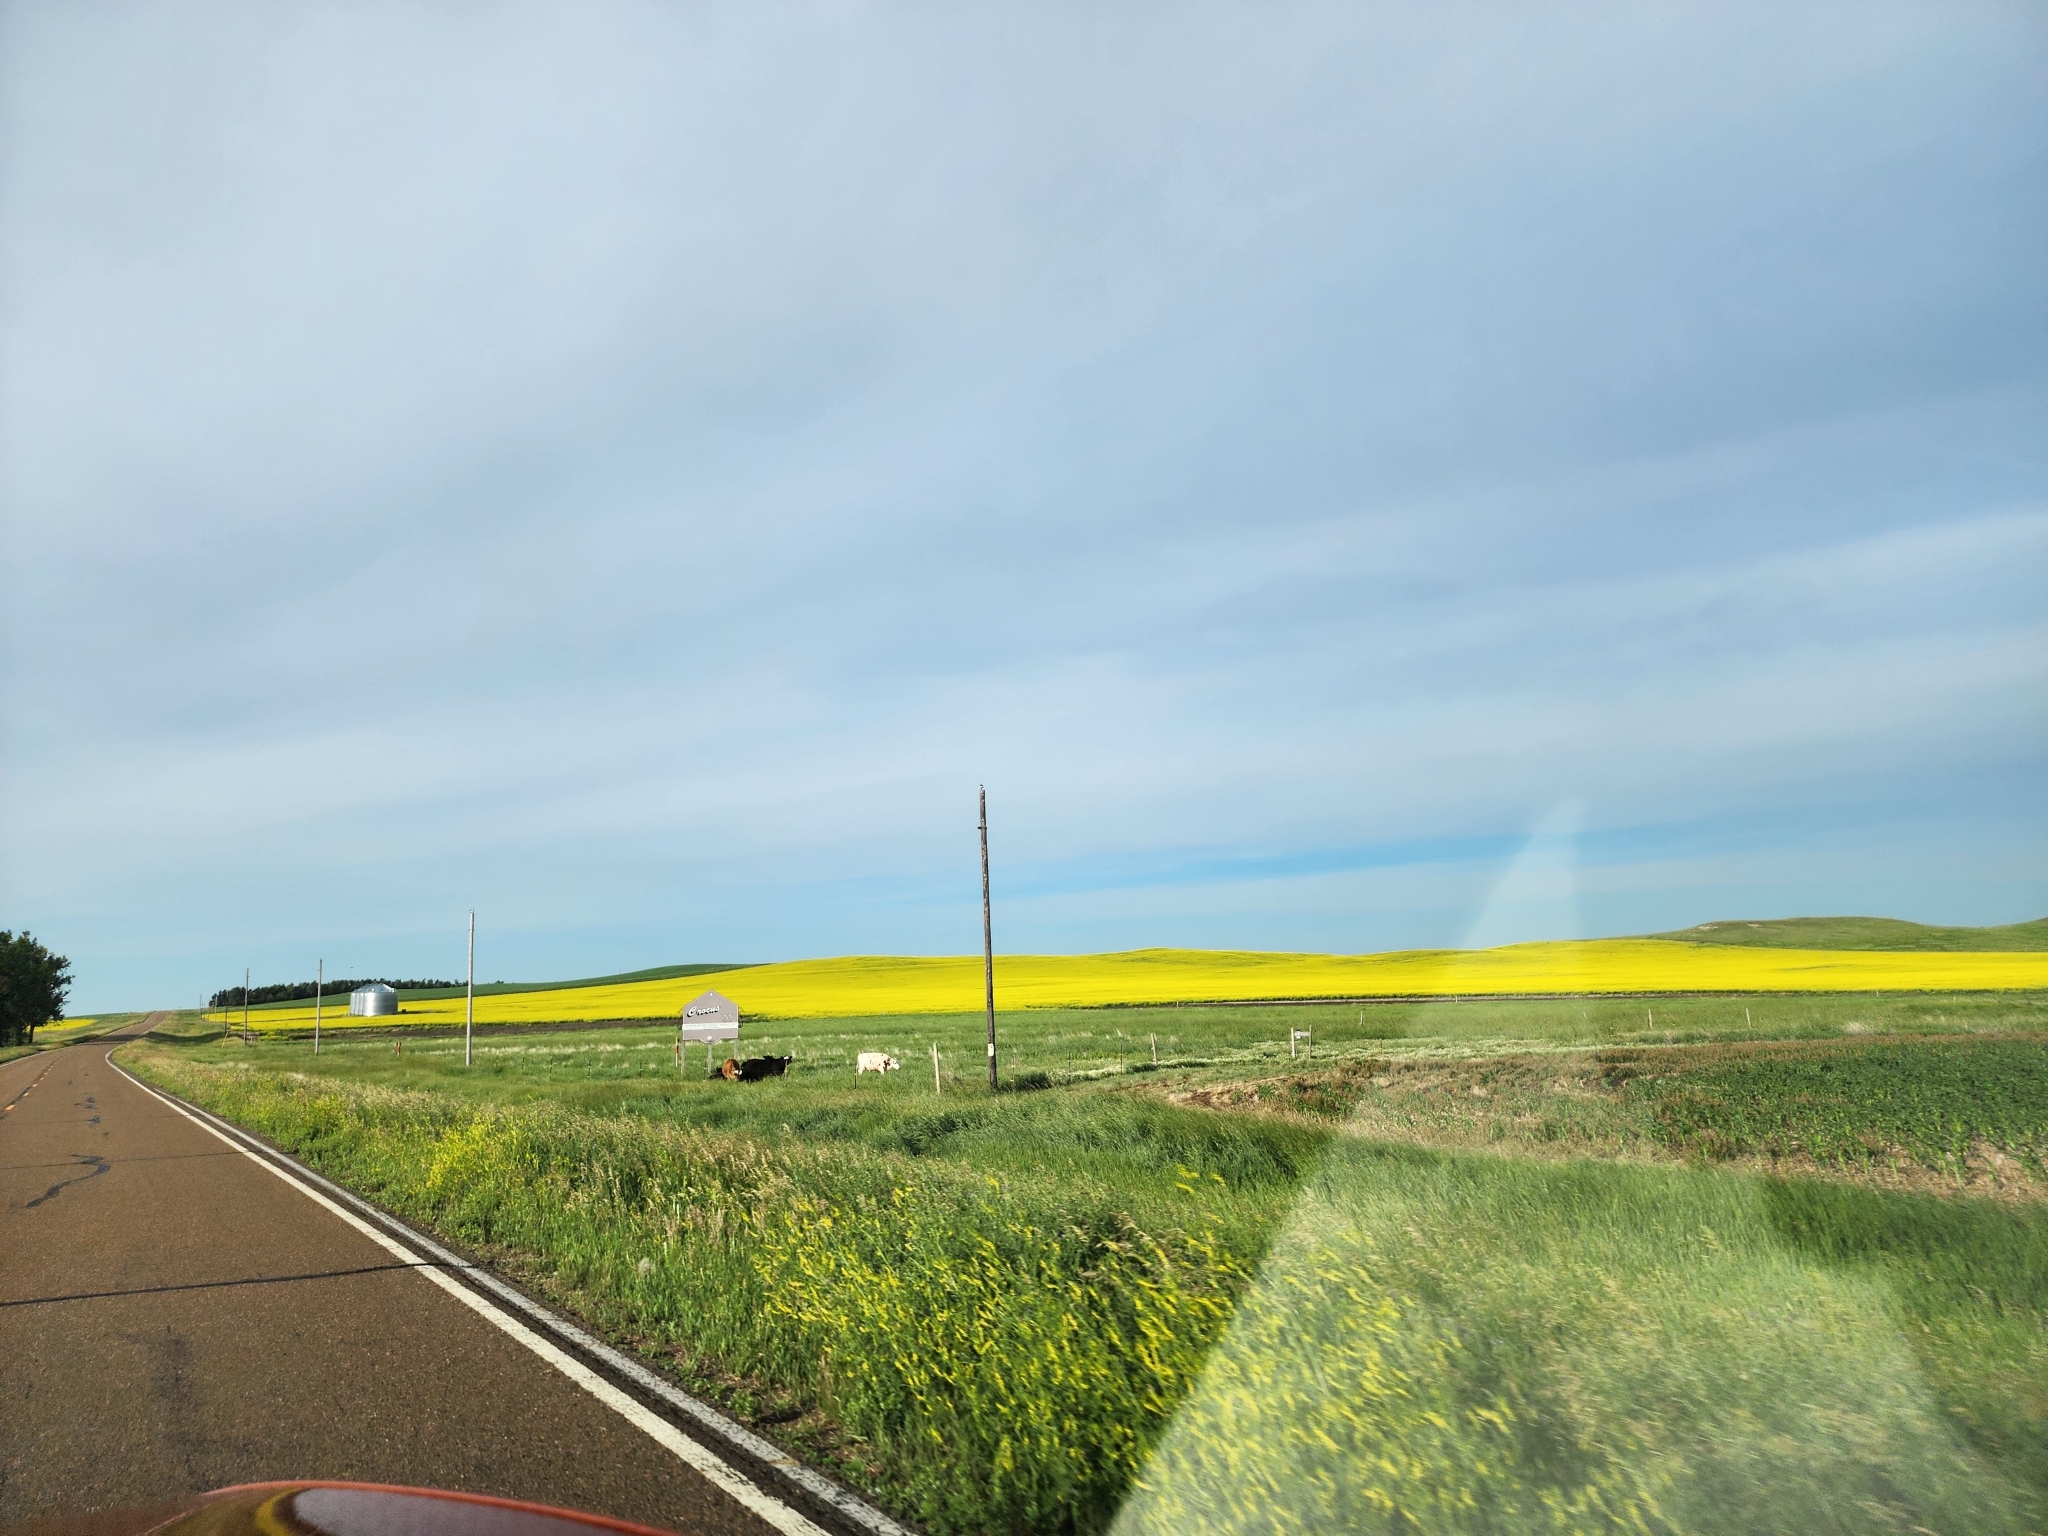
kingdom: Plantae
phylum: Tracheophyta
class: Magnoliopsida
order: Fabales
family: Fabaceae
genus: Melilotus
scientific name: Melilotus officinalis
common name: Sweetclover
